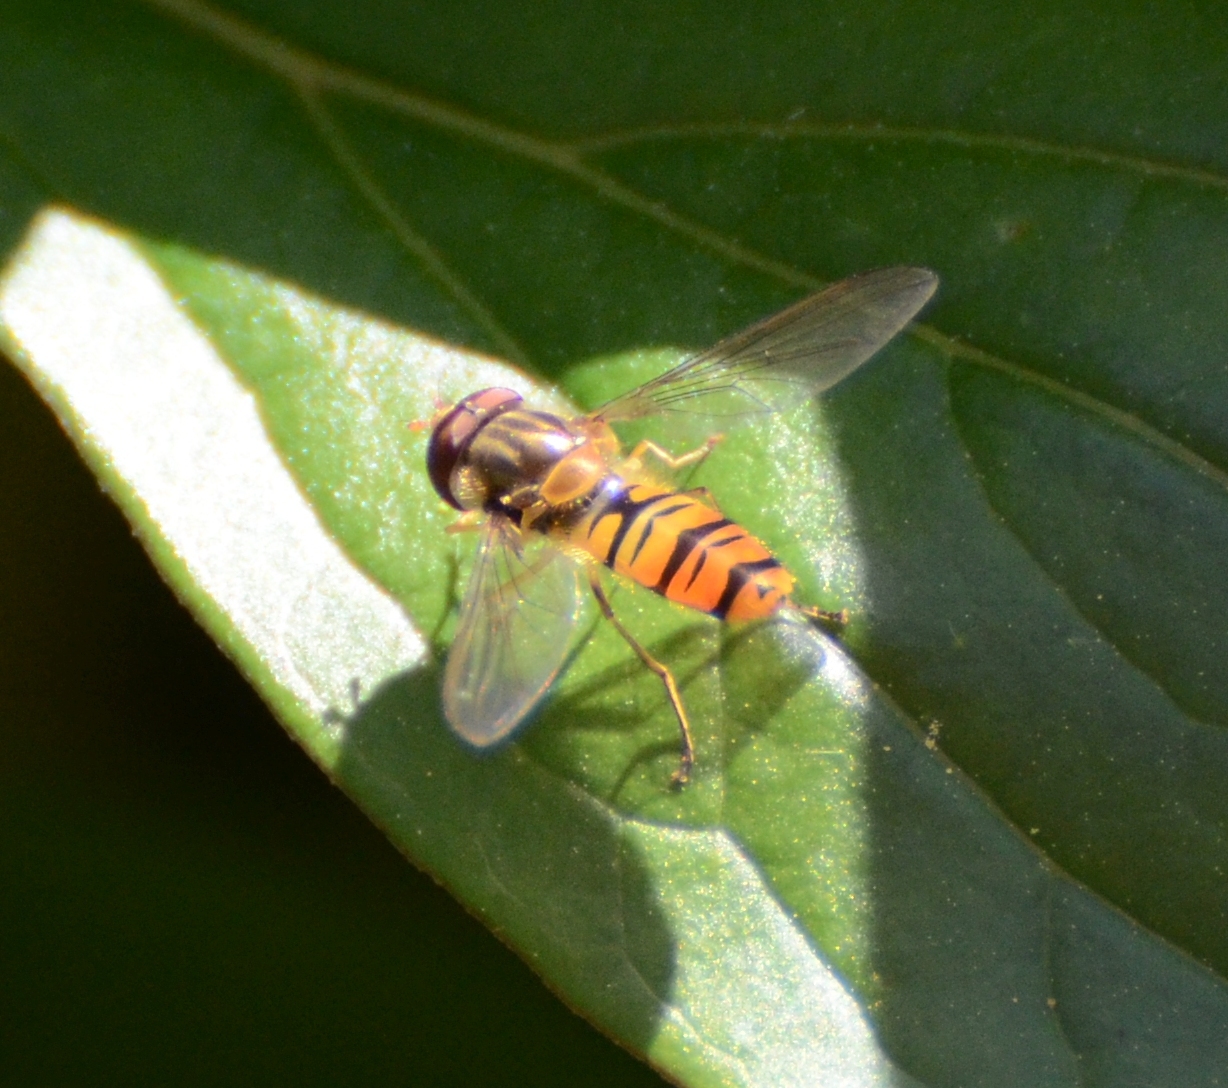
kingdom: Animalia
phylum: Arthropoda
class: Insecta
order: Diptera
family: Syrphidae
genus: Episyrphus
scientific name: Episyrphus balteatus
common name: Marmalade hoverfly
